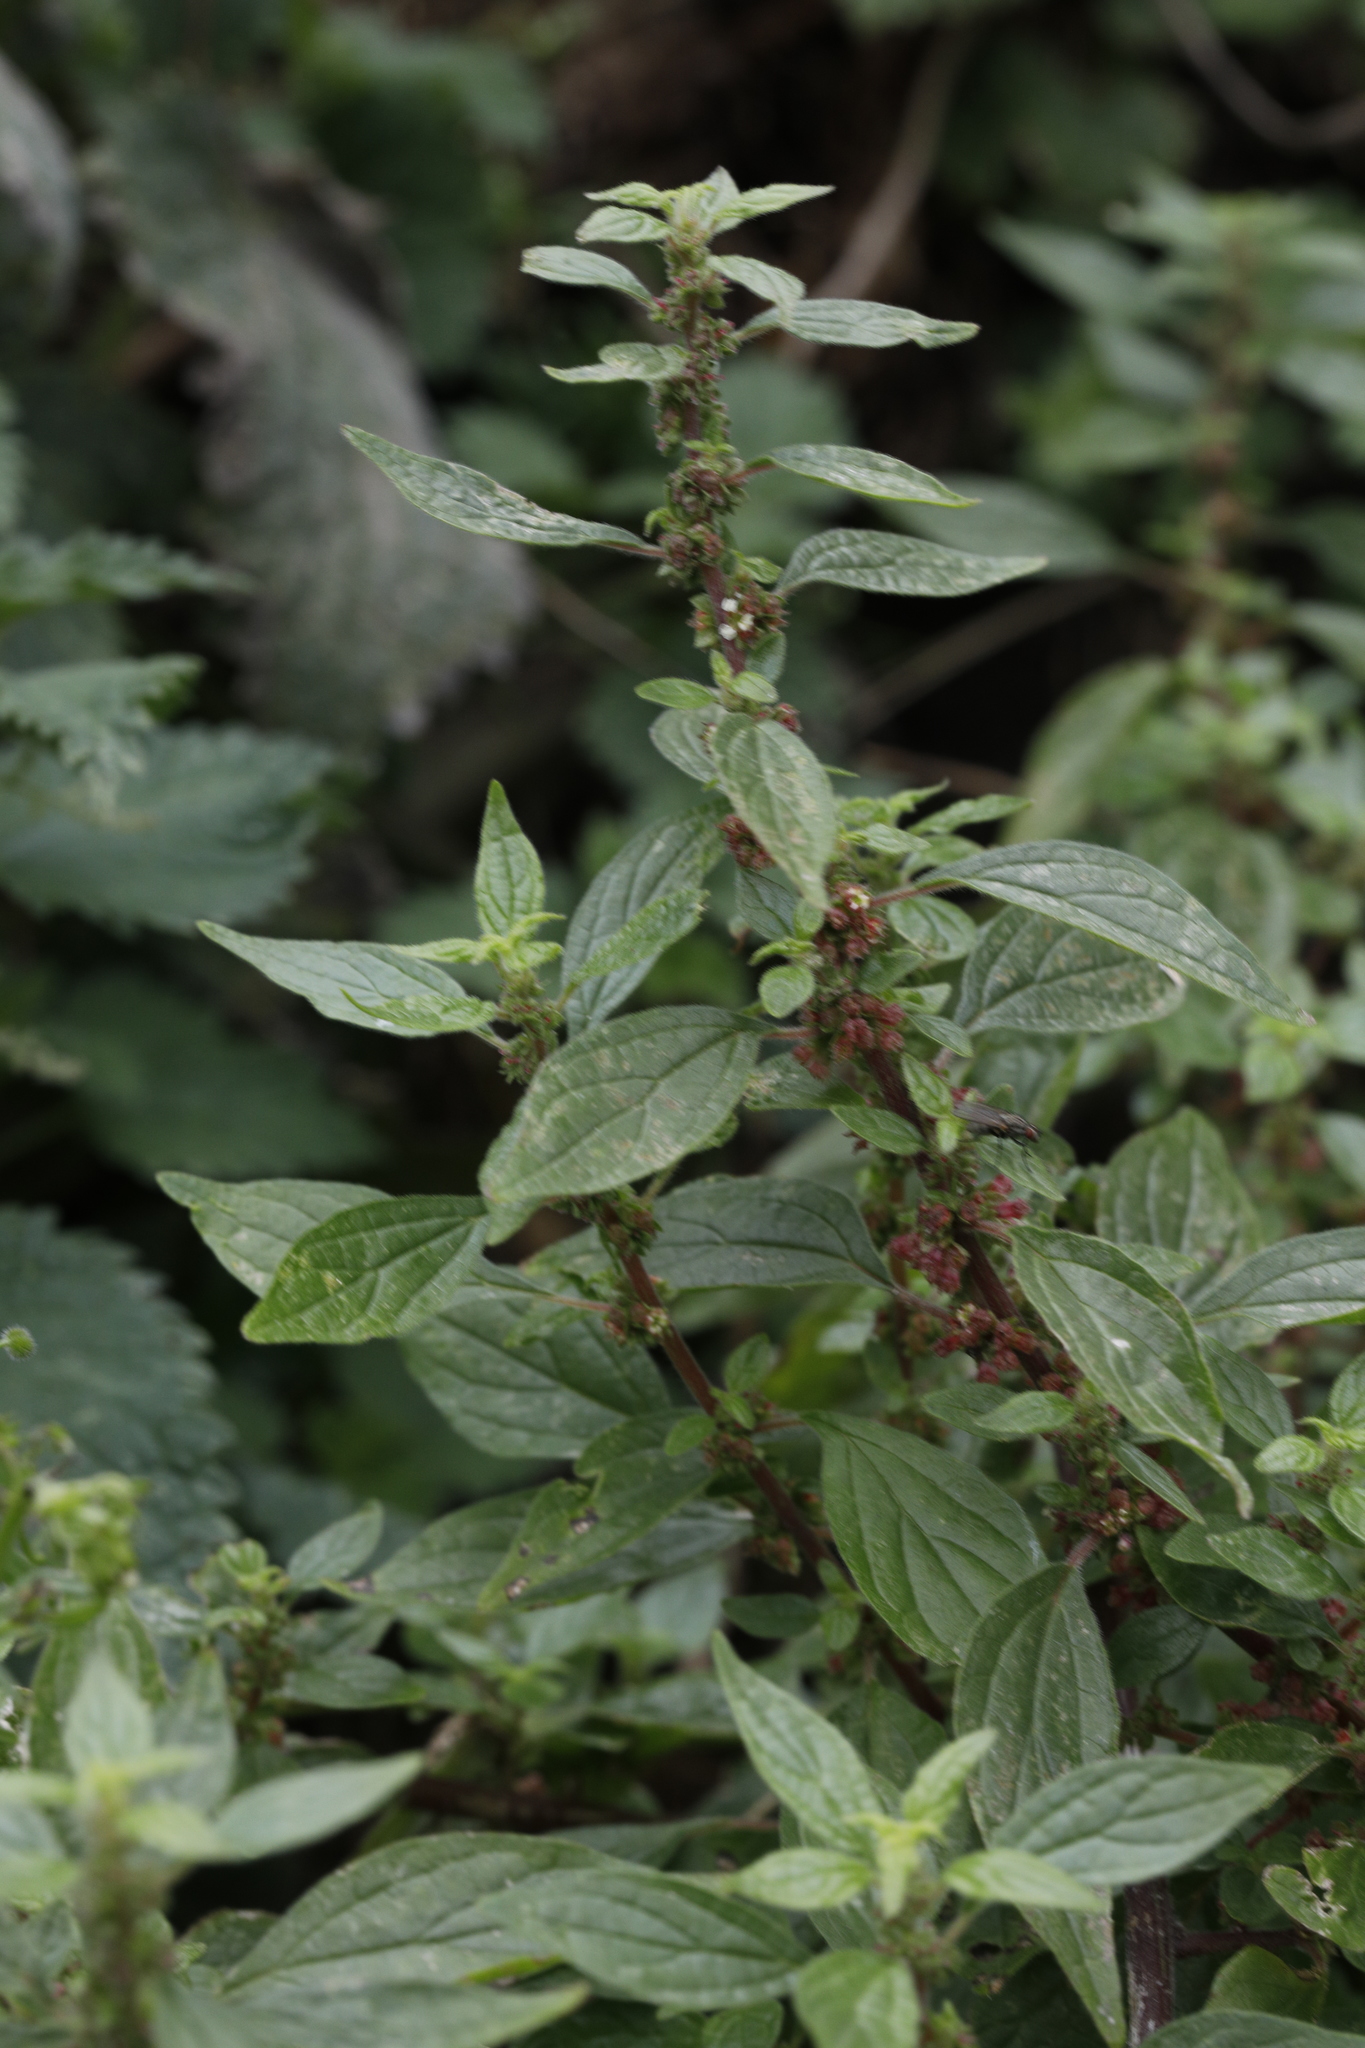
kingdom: Plantae
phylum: Tracheophyta
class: Magnoliopsida
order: Rosales
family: Urticaceae
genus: Parietaria
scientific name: Parietaria judaica
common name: Pellitory-of-the-wall
